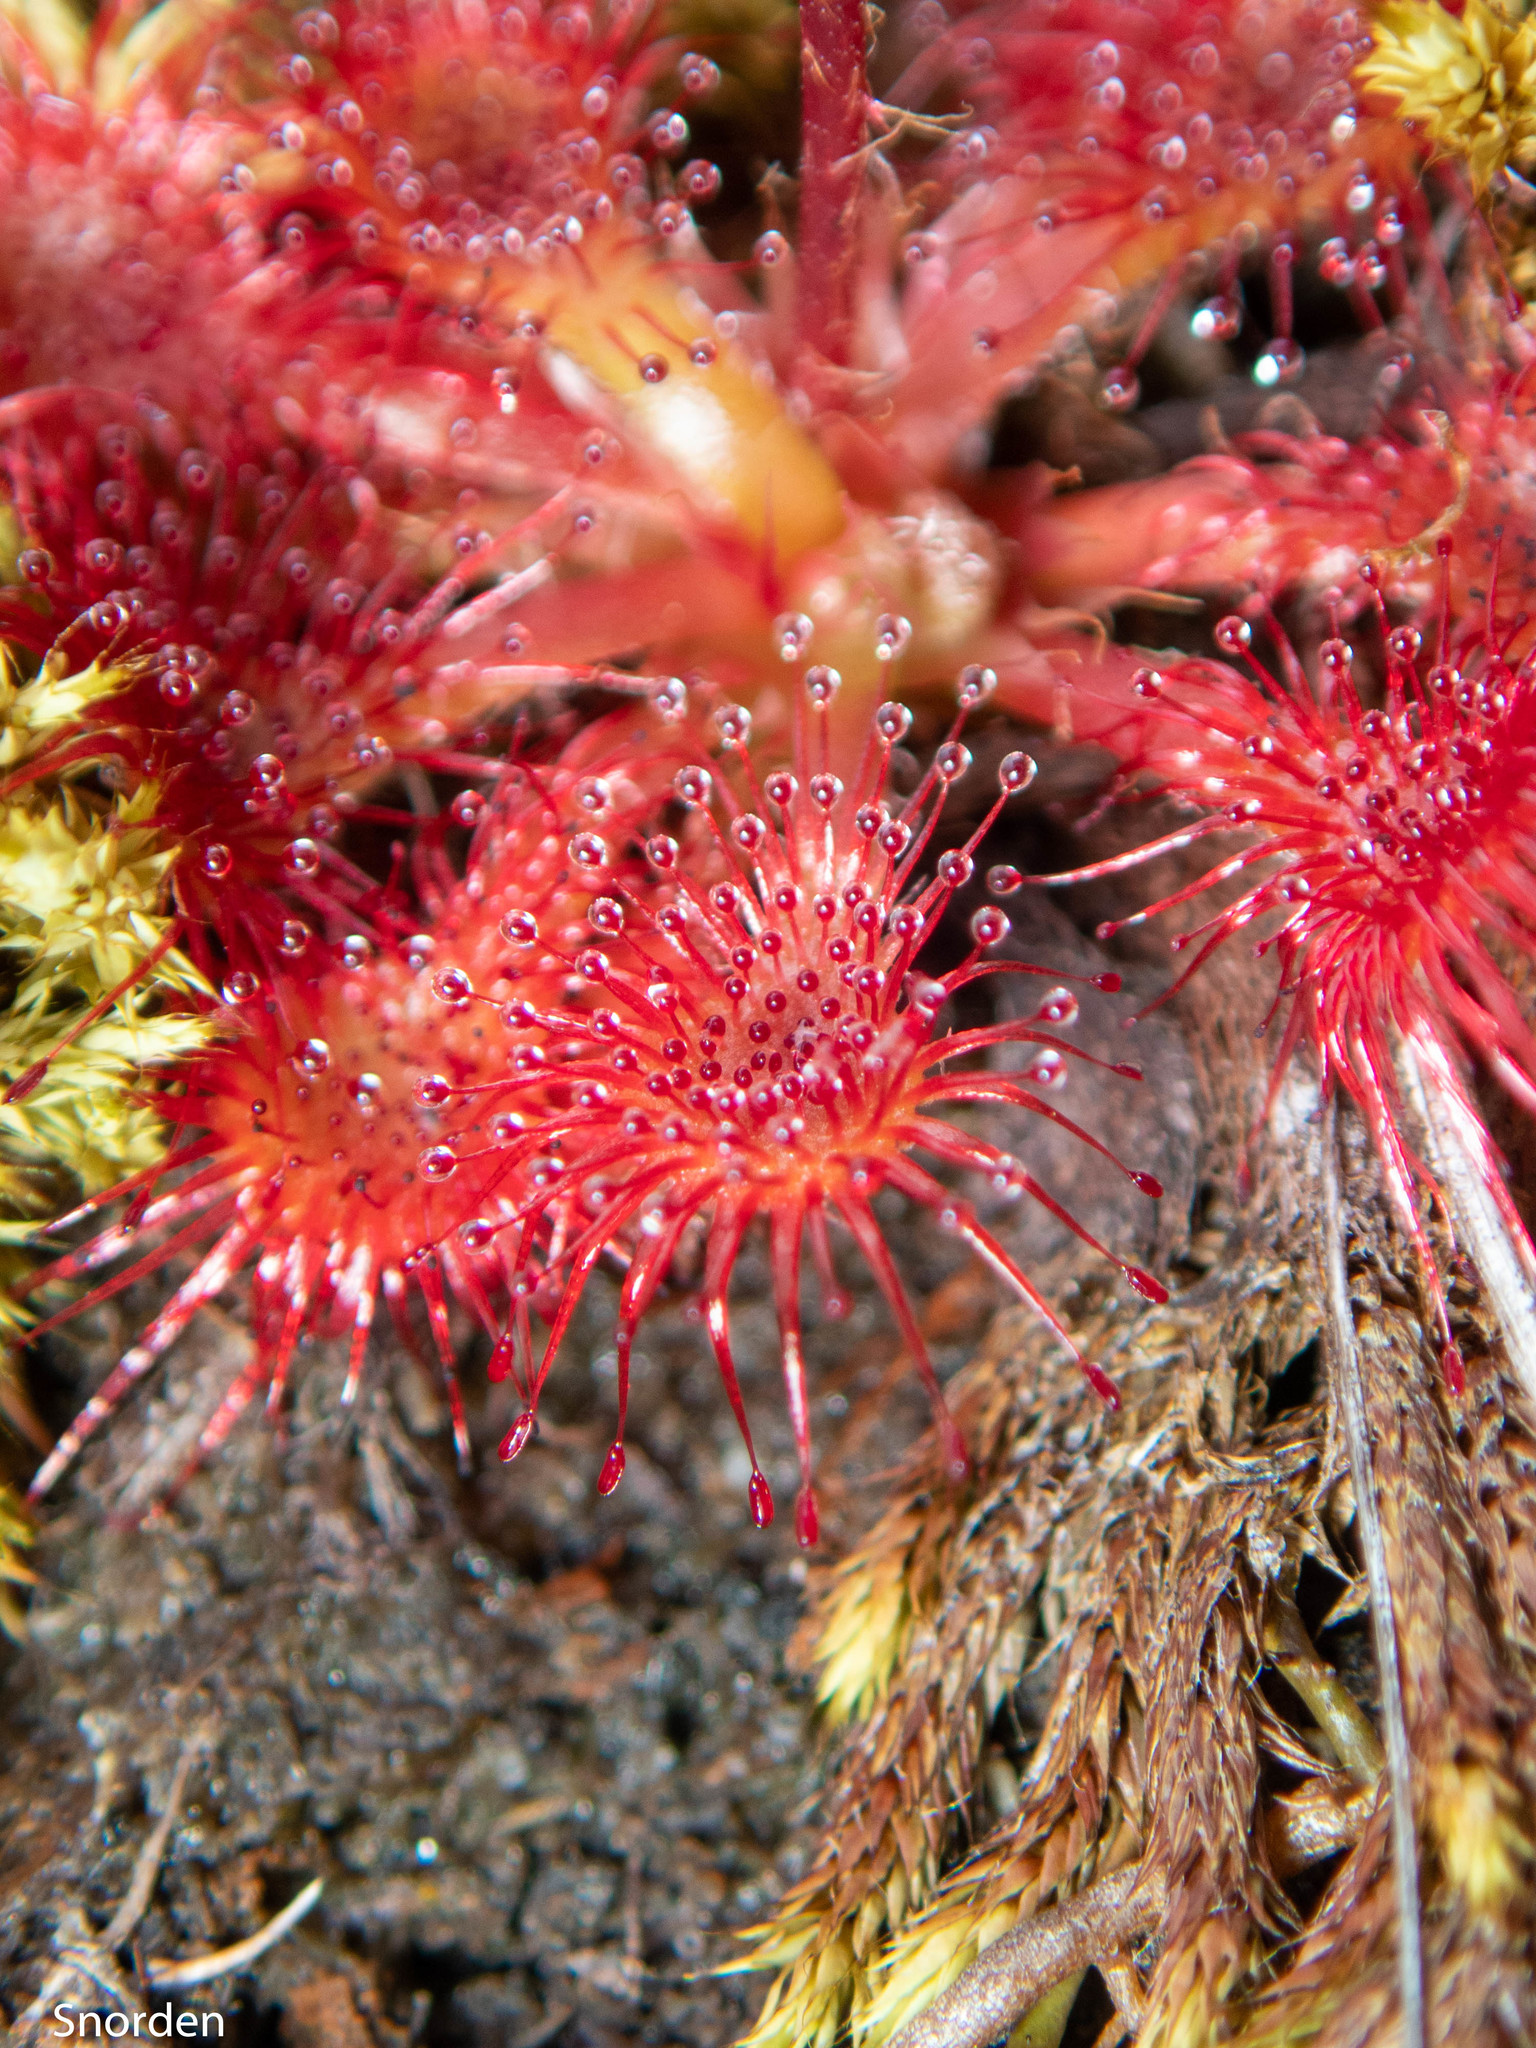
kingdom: Plantae
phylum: Tracheophyta
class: Magnoliopsida
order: Caryophyllales
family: Droseraceae
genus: Drosera
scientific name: Drosera spatulata
